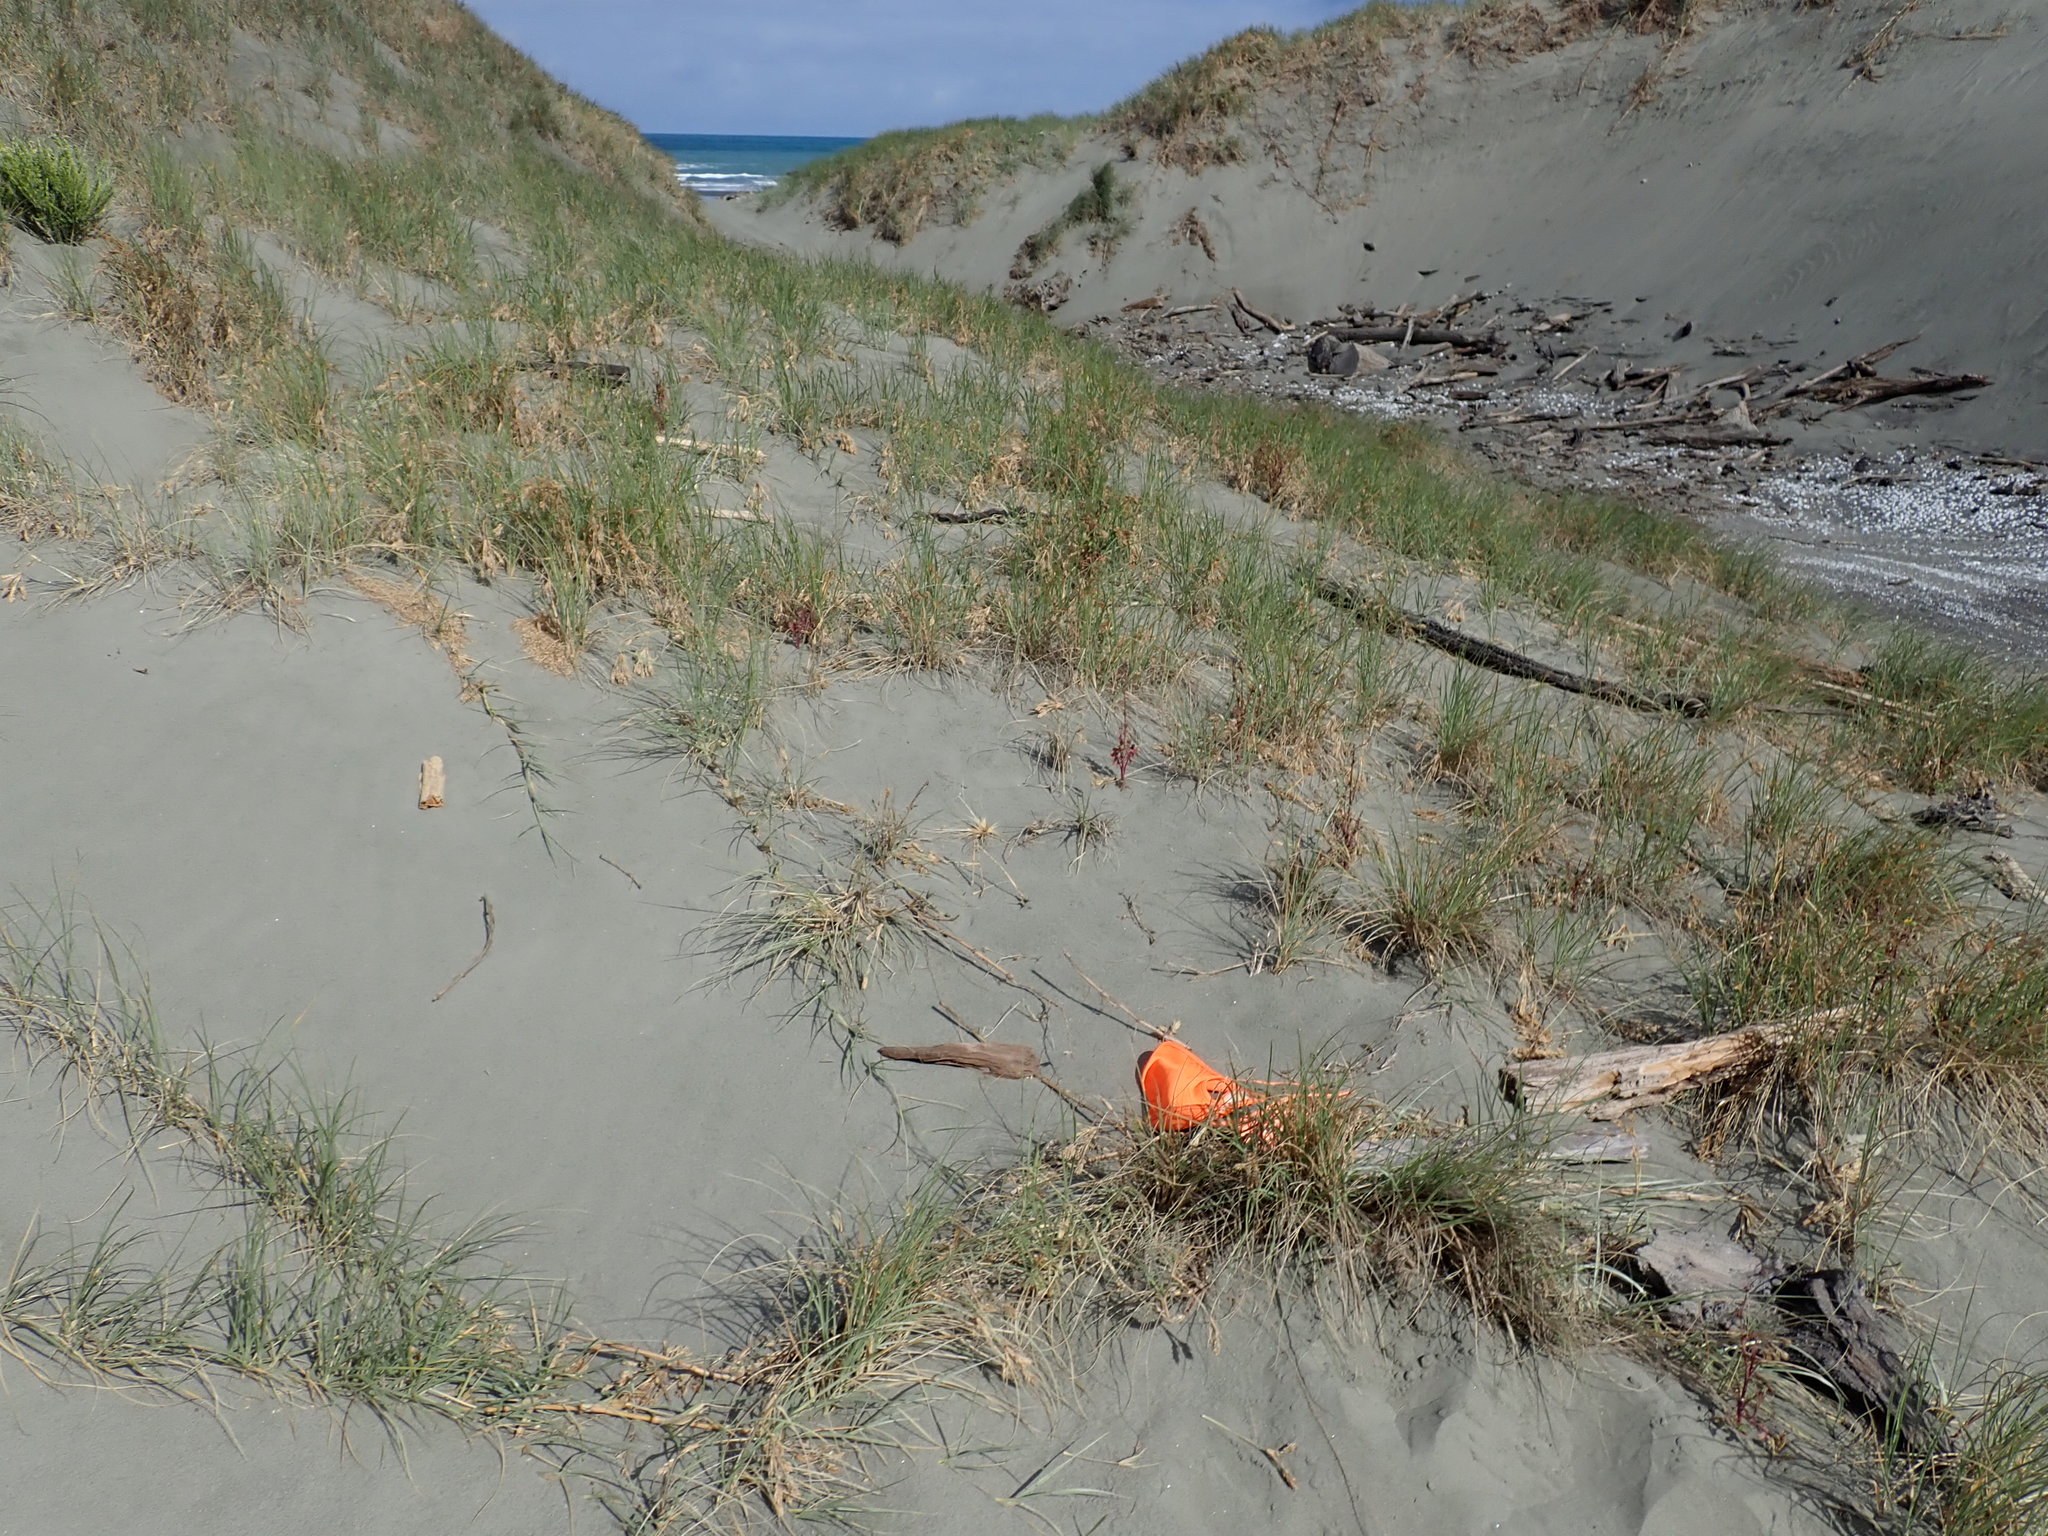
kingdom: Animalia
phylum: Arthropoda
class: Arachnida
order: Araneae
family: Theridiidae
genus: Latrodectus
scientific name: Latrodectus katipo
